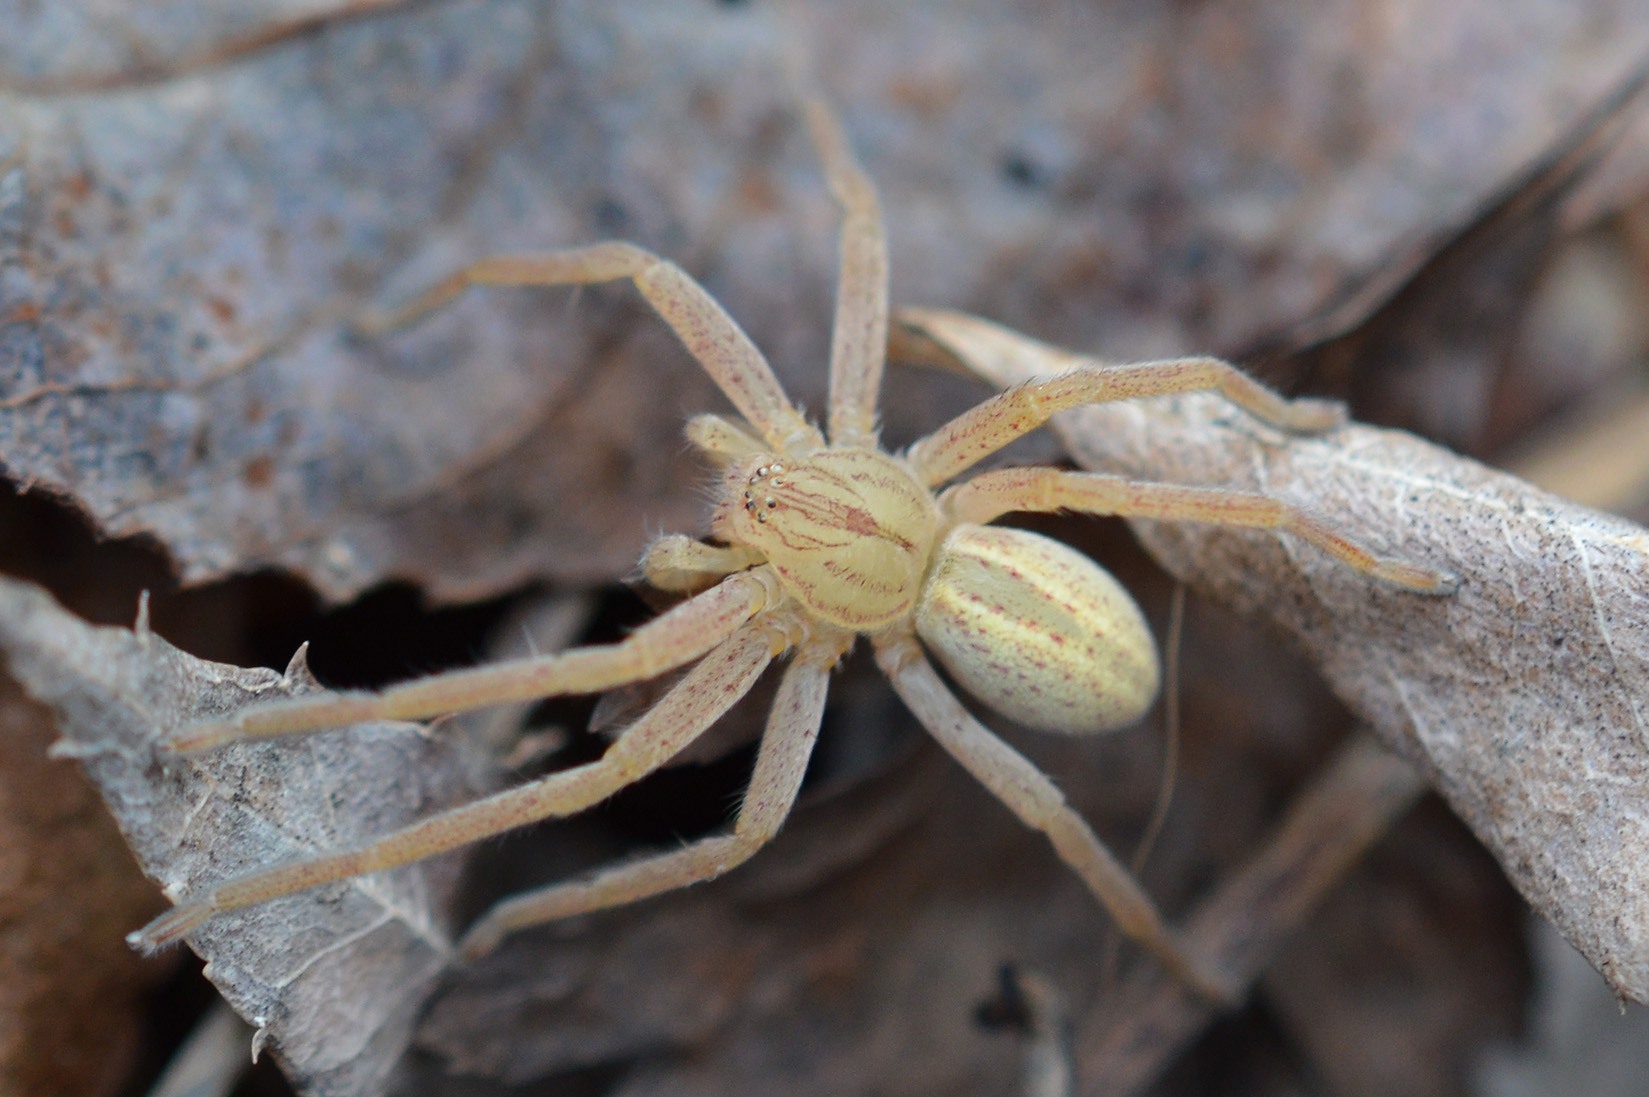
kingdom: Animalia
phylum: Arthropoda
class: Arachnida
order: Araneae
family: Sparassidae
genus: Micrommata
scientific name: Micrommata virescens
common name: Green spider
